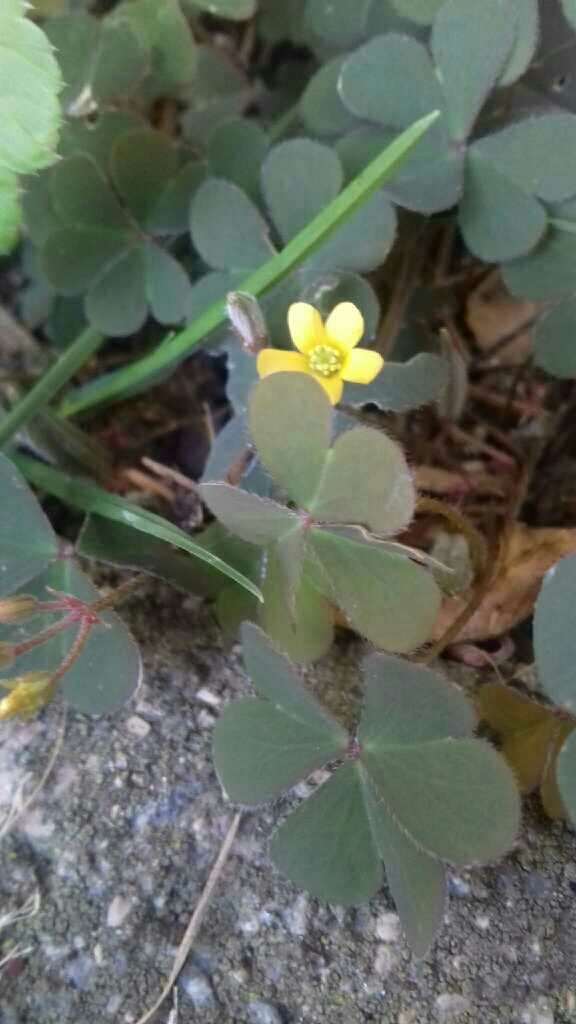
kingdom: Plantae
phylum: Tracheophyta
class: Magnoliopsida
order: Oxalidales
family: Oxalidaceae
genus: Oxalis
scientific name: Oxalis corniculata
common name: Procumbent yellow-sorrel
